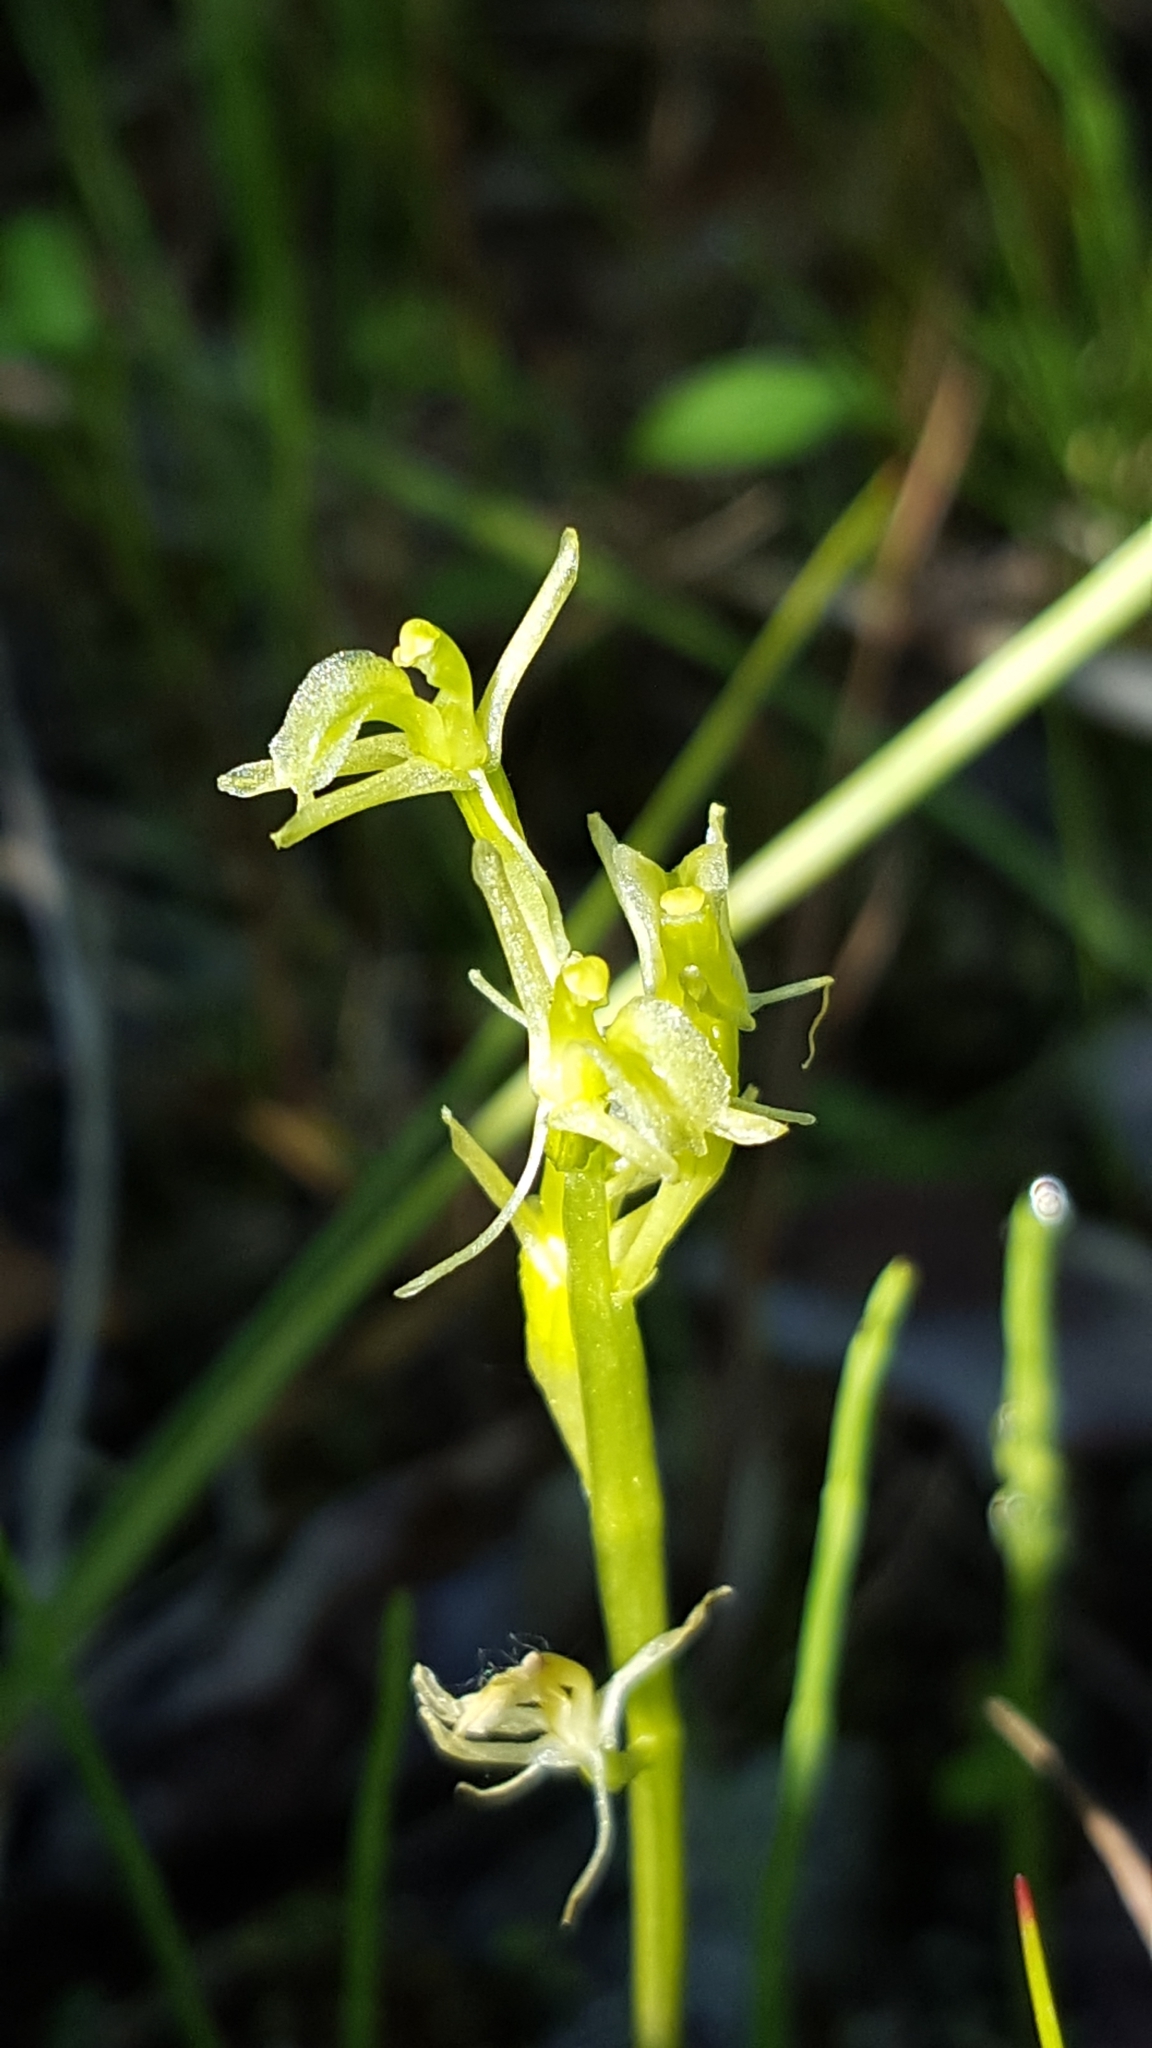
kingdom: Animalia
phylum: Arthropoda
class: Insecta
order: Coleoptera
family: Curculionidae
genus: Liparis
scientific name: Liparis loeselii
